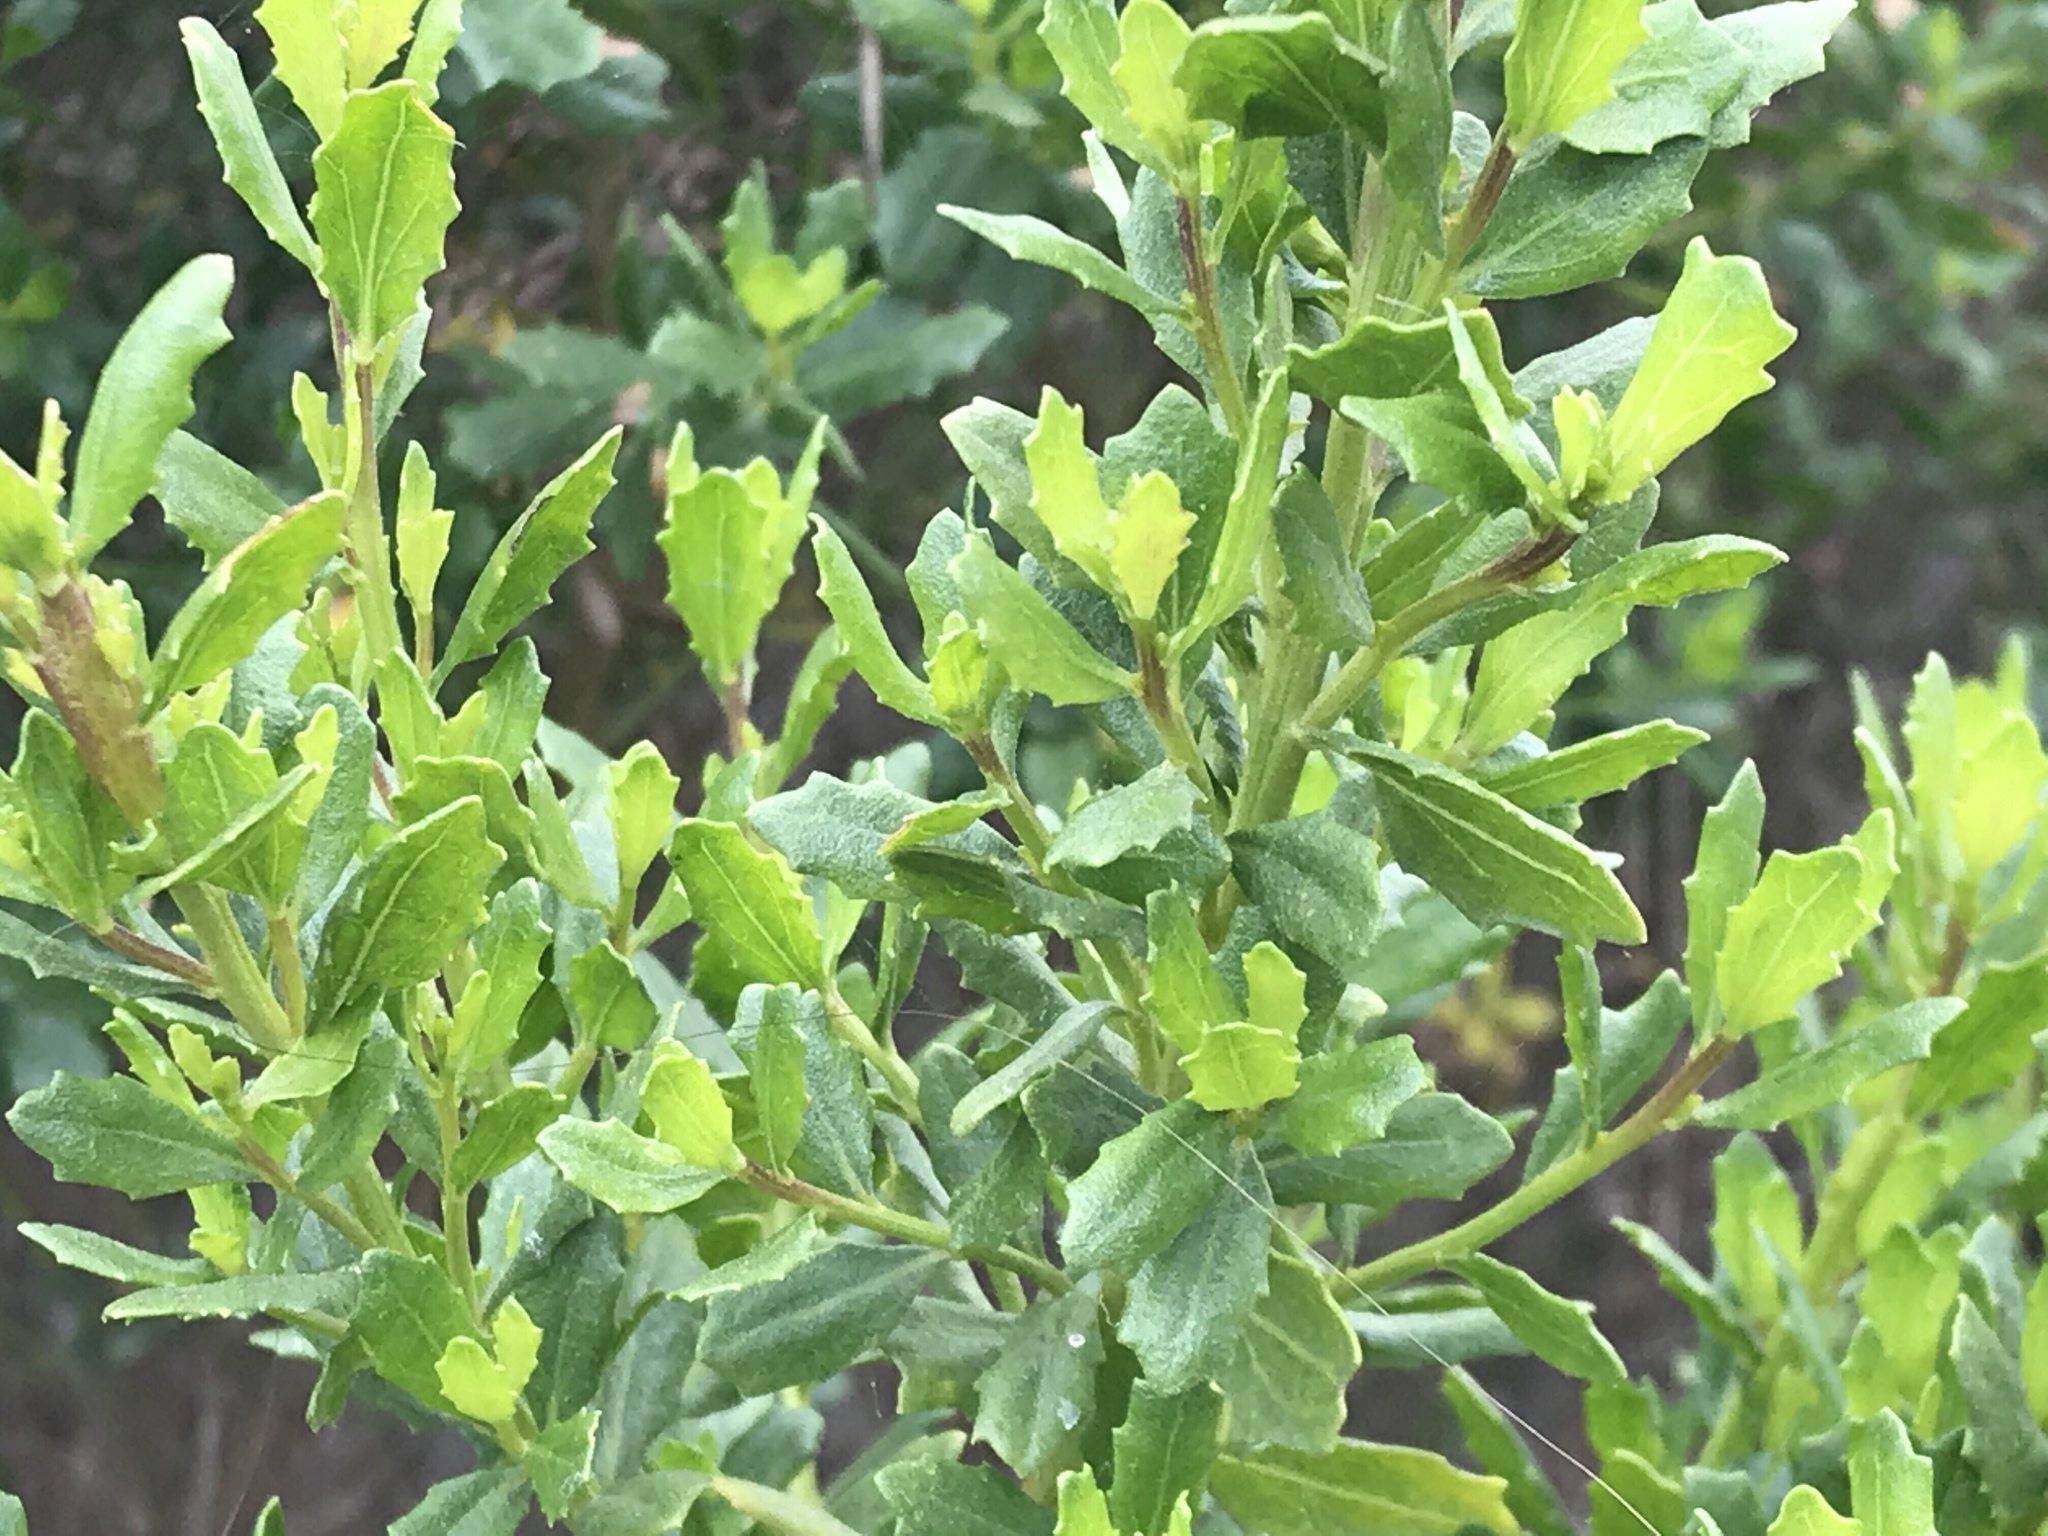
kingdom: Plantae
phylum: Tracheophyta
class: Magnoliopsida
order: Asterales
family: Asteraceae
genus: Baccharis
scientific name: Baccharis pilularis
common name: Coyotebrush
